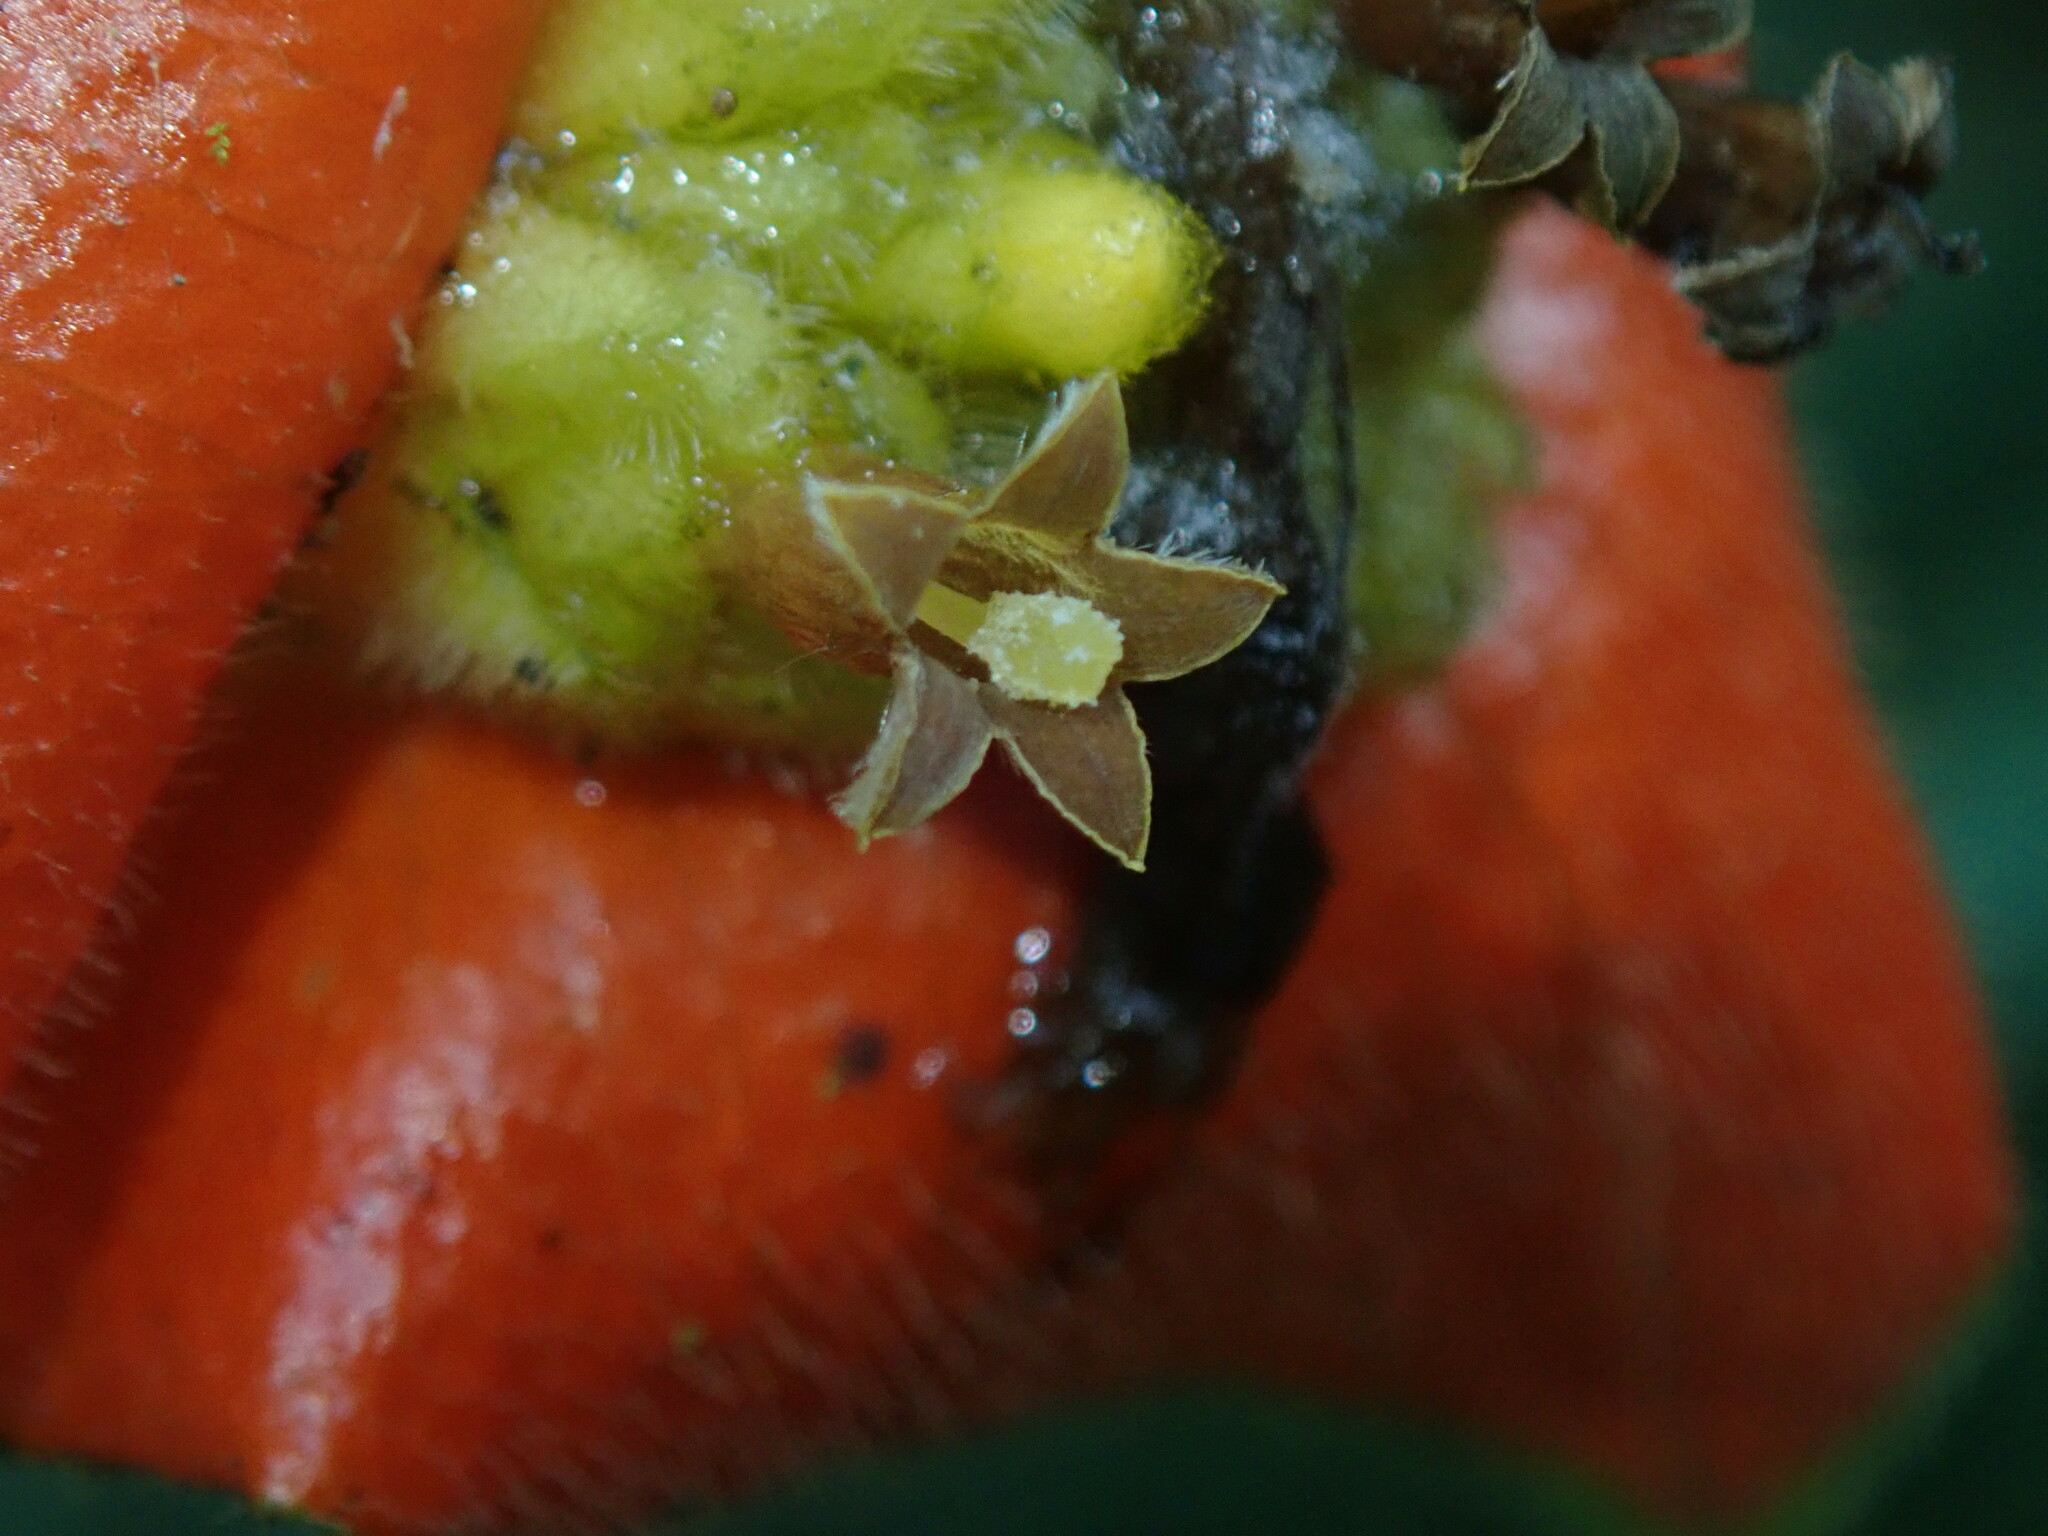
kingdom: Plantae
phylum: Tracheophyta
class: Magnoliopsida
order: Gentianales
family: Rubiaceae
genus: Palicourea
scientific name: Palicourea tomentosa
